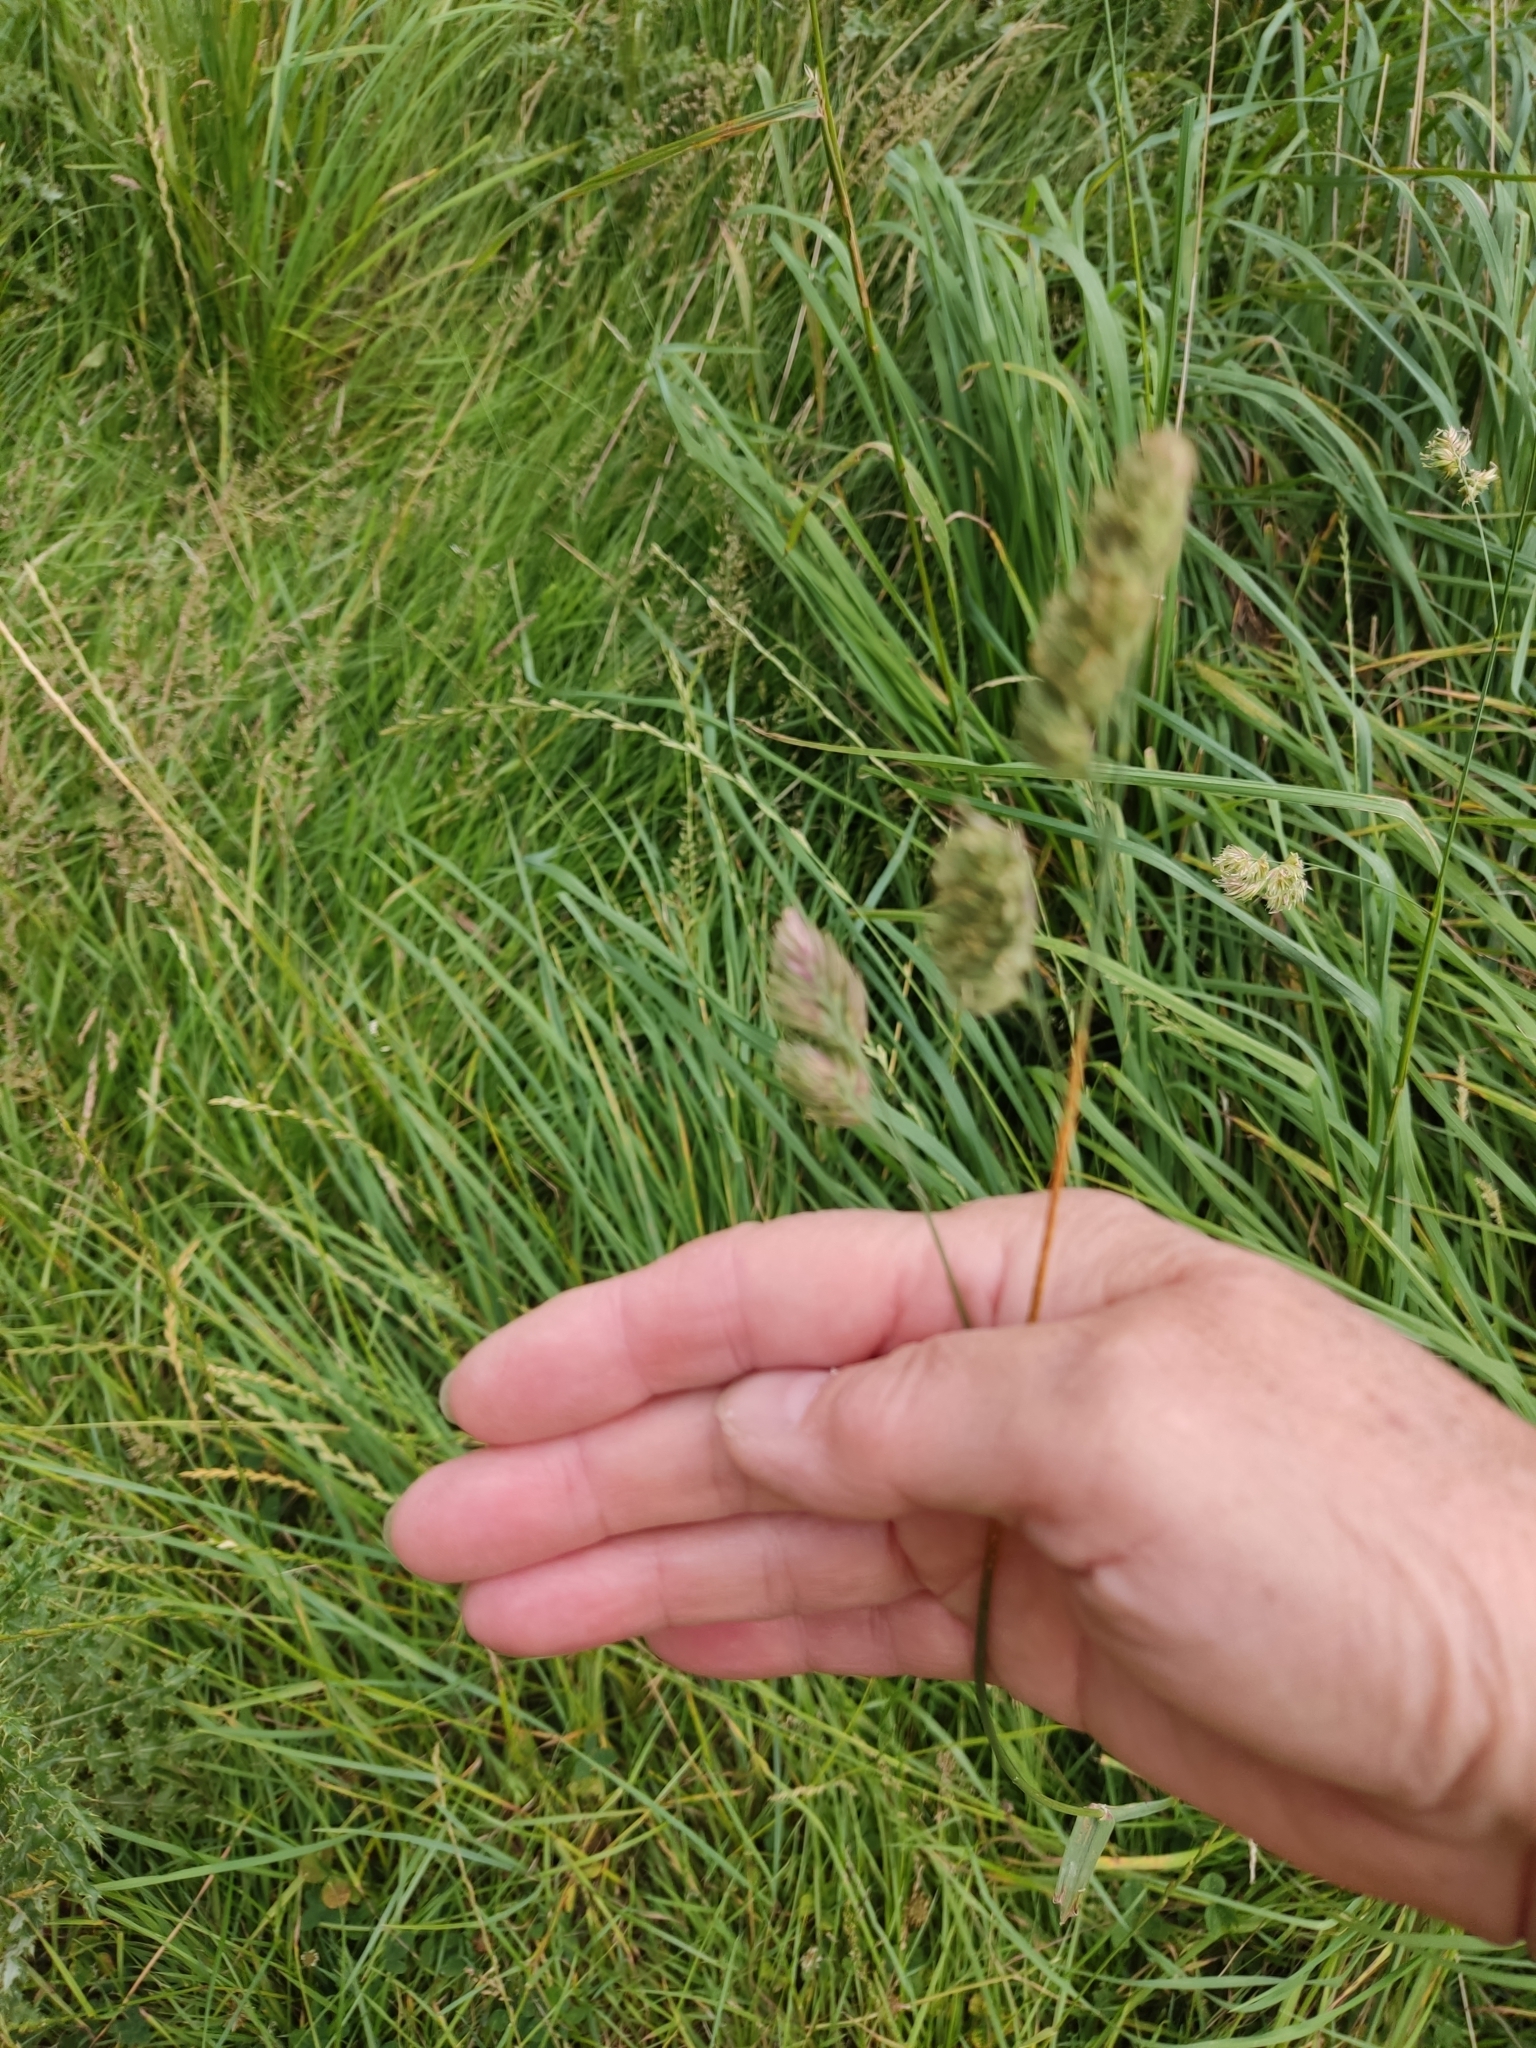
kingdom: Plantae
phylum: Tracheophyta
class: Liliopsida
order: Poales
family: Poaceae
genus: Dactylis
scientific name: Dactylis glomerata
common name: Orchardgrass
